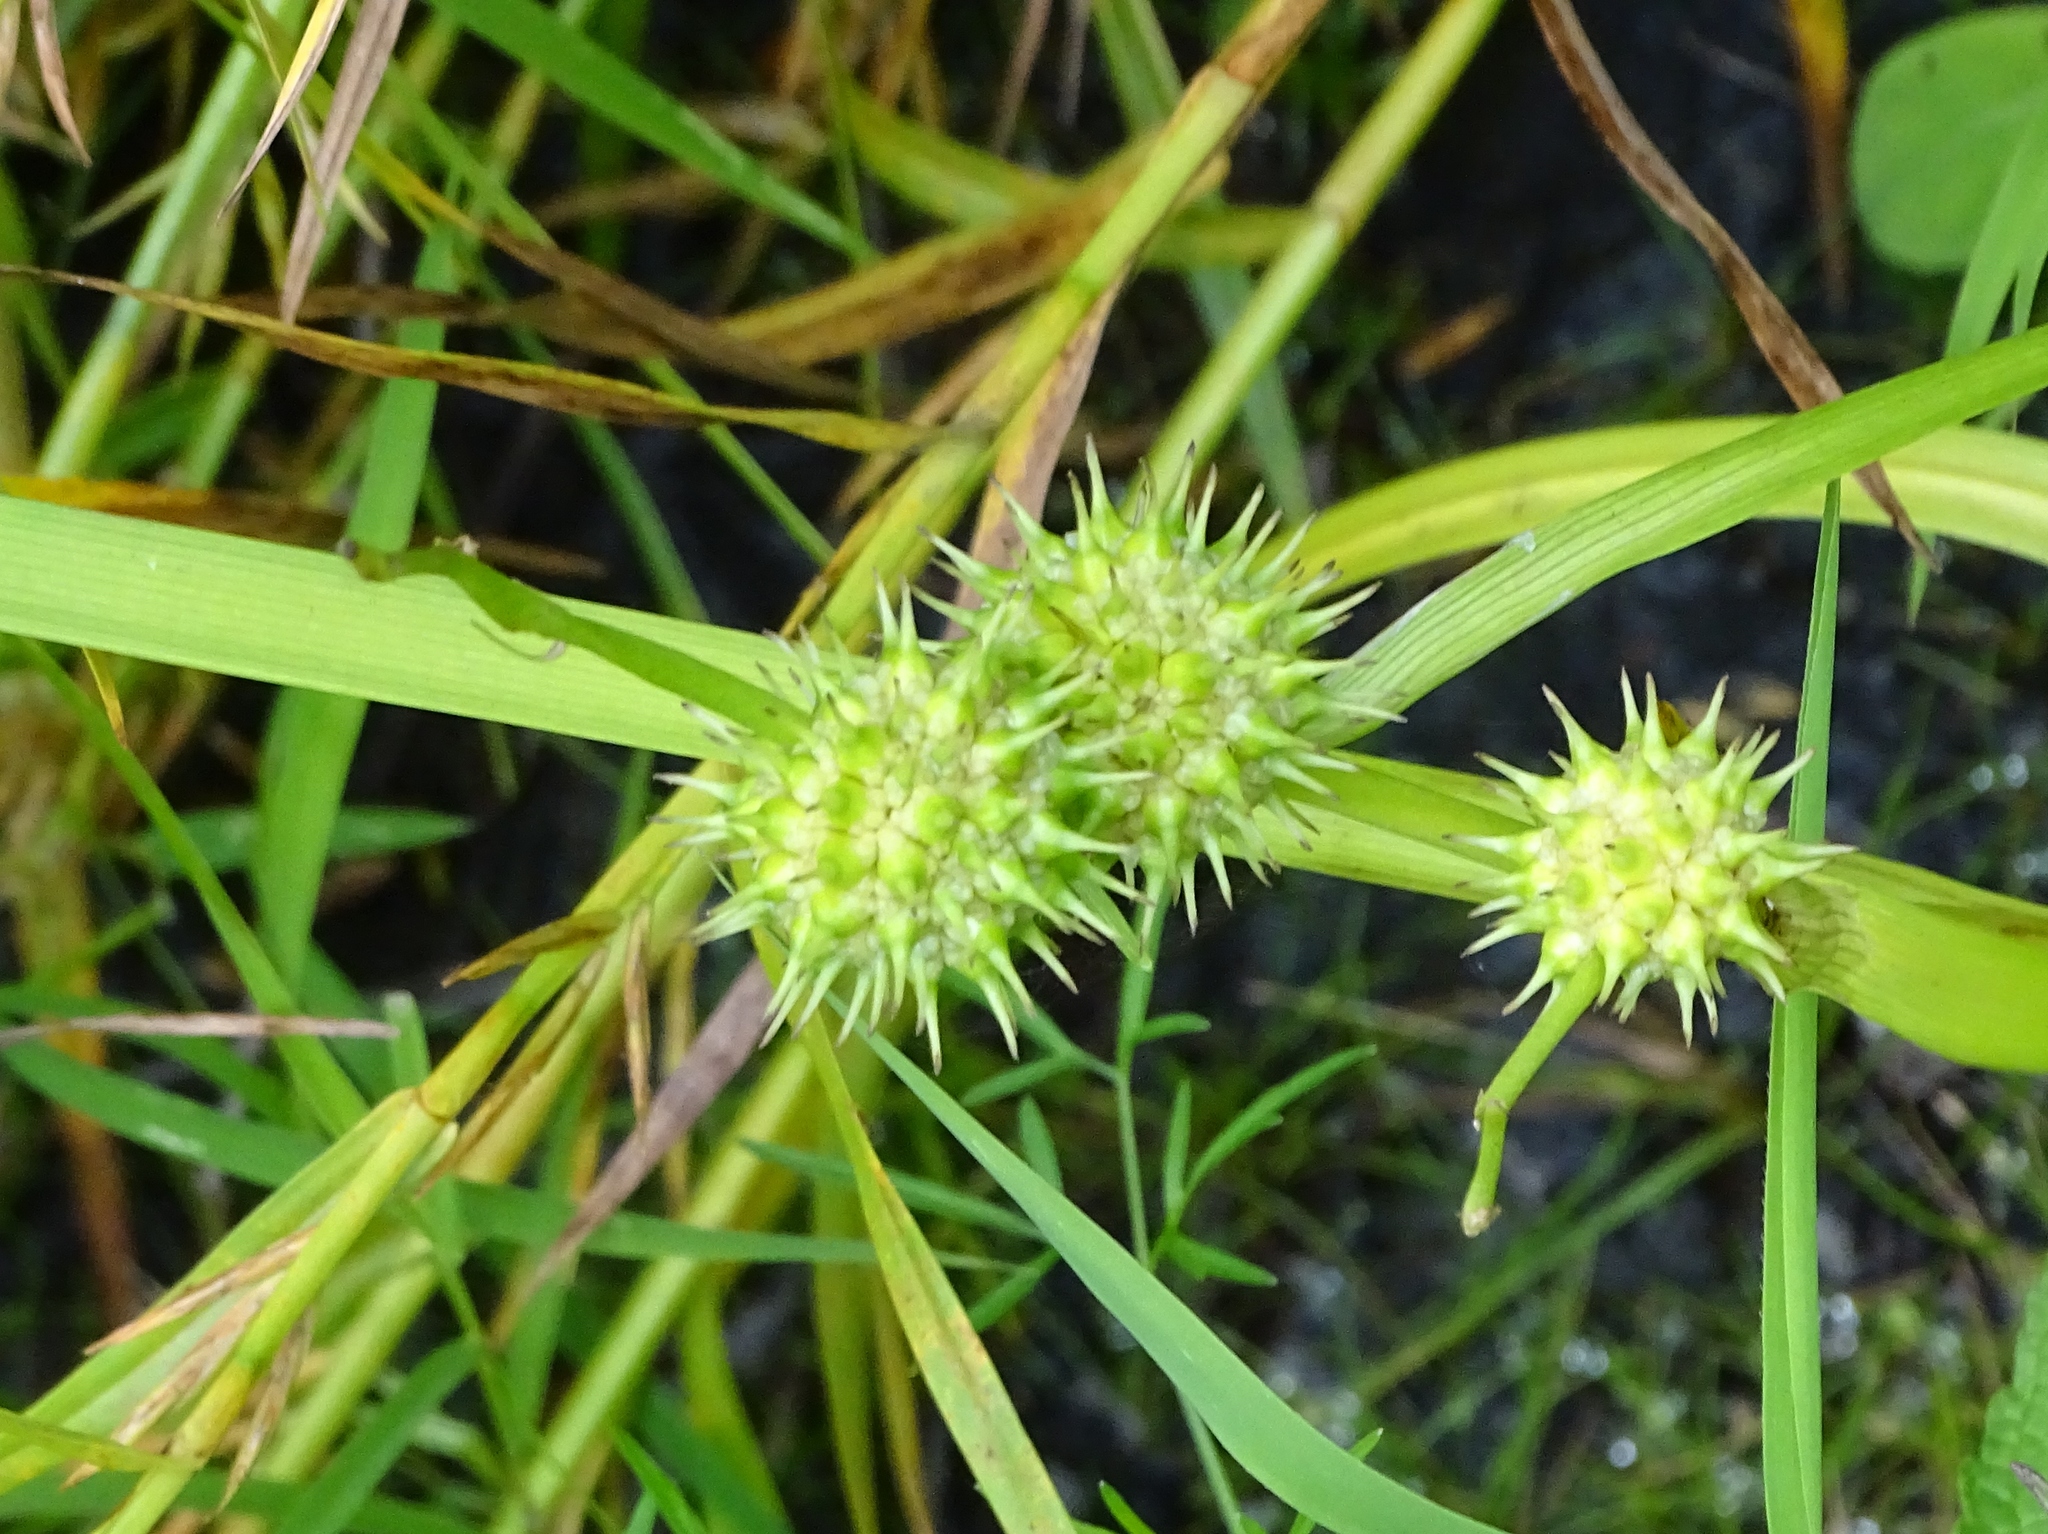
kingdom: Plantae
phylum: Tracheophyta
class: Liliopsida
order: Poales
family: Typhaceae
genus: Sparganium
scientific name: Sparganium americanum
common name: American burreed
